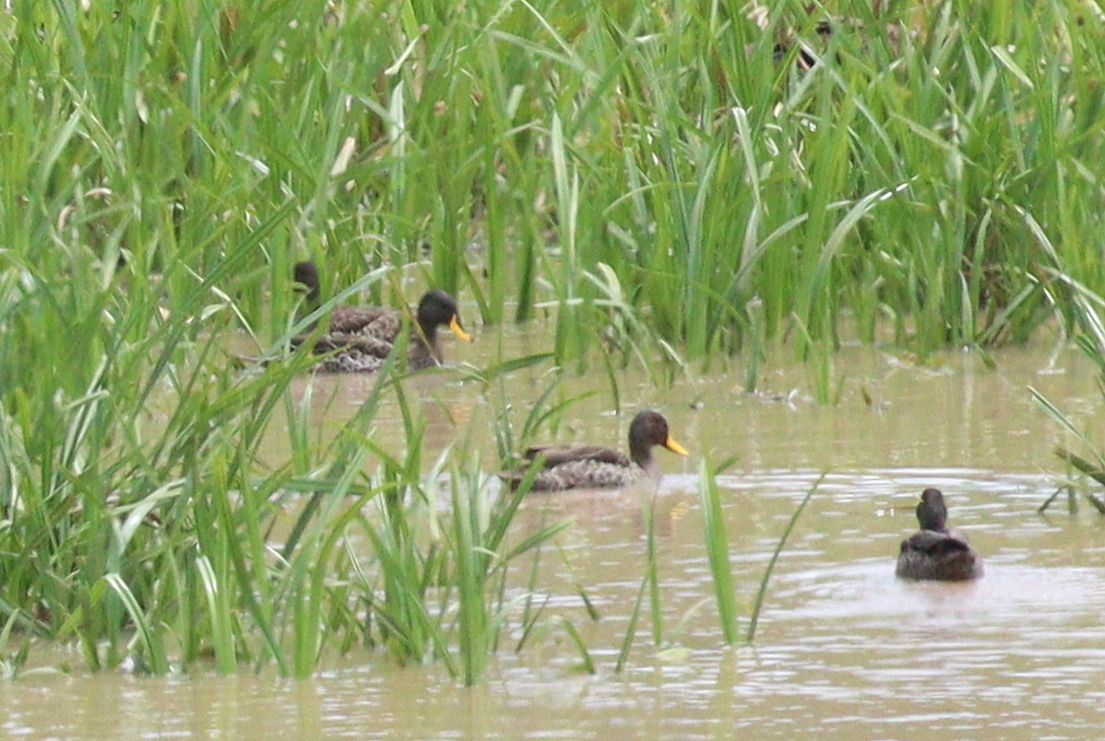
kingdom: Animalia
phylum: Chordata
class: Aves
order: Anseriformes
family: Anatidae
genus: Anas
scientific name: Anas undulata
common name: Yellow-billed duck
